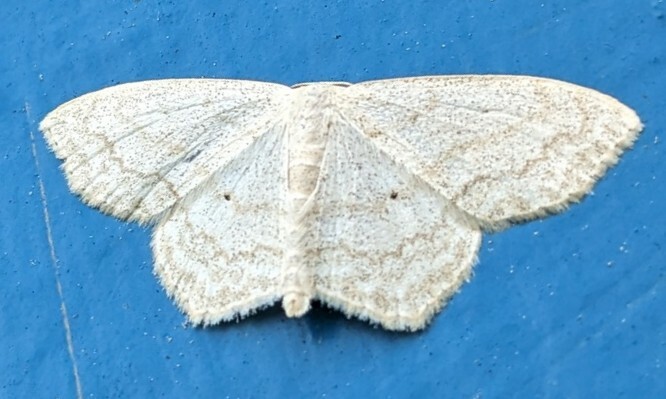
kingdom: Animalia
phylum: Arthropoda
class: Insecta
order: Lepidoptera
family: Geometridae
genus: Scopula
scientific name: Scopula limboundata
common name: Large lace border
